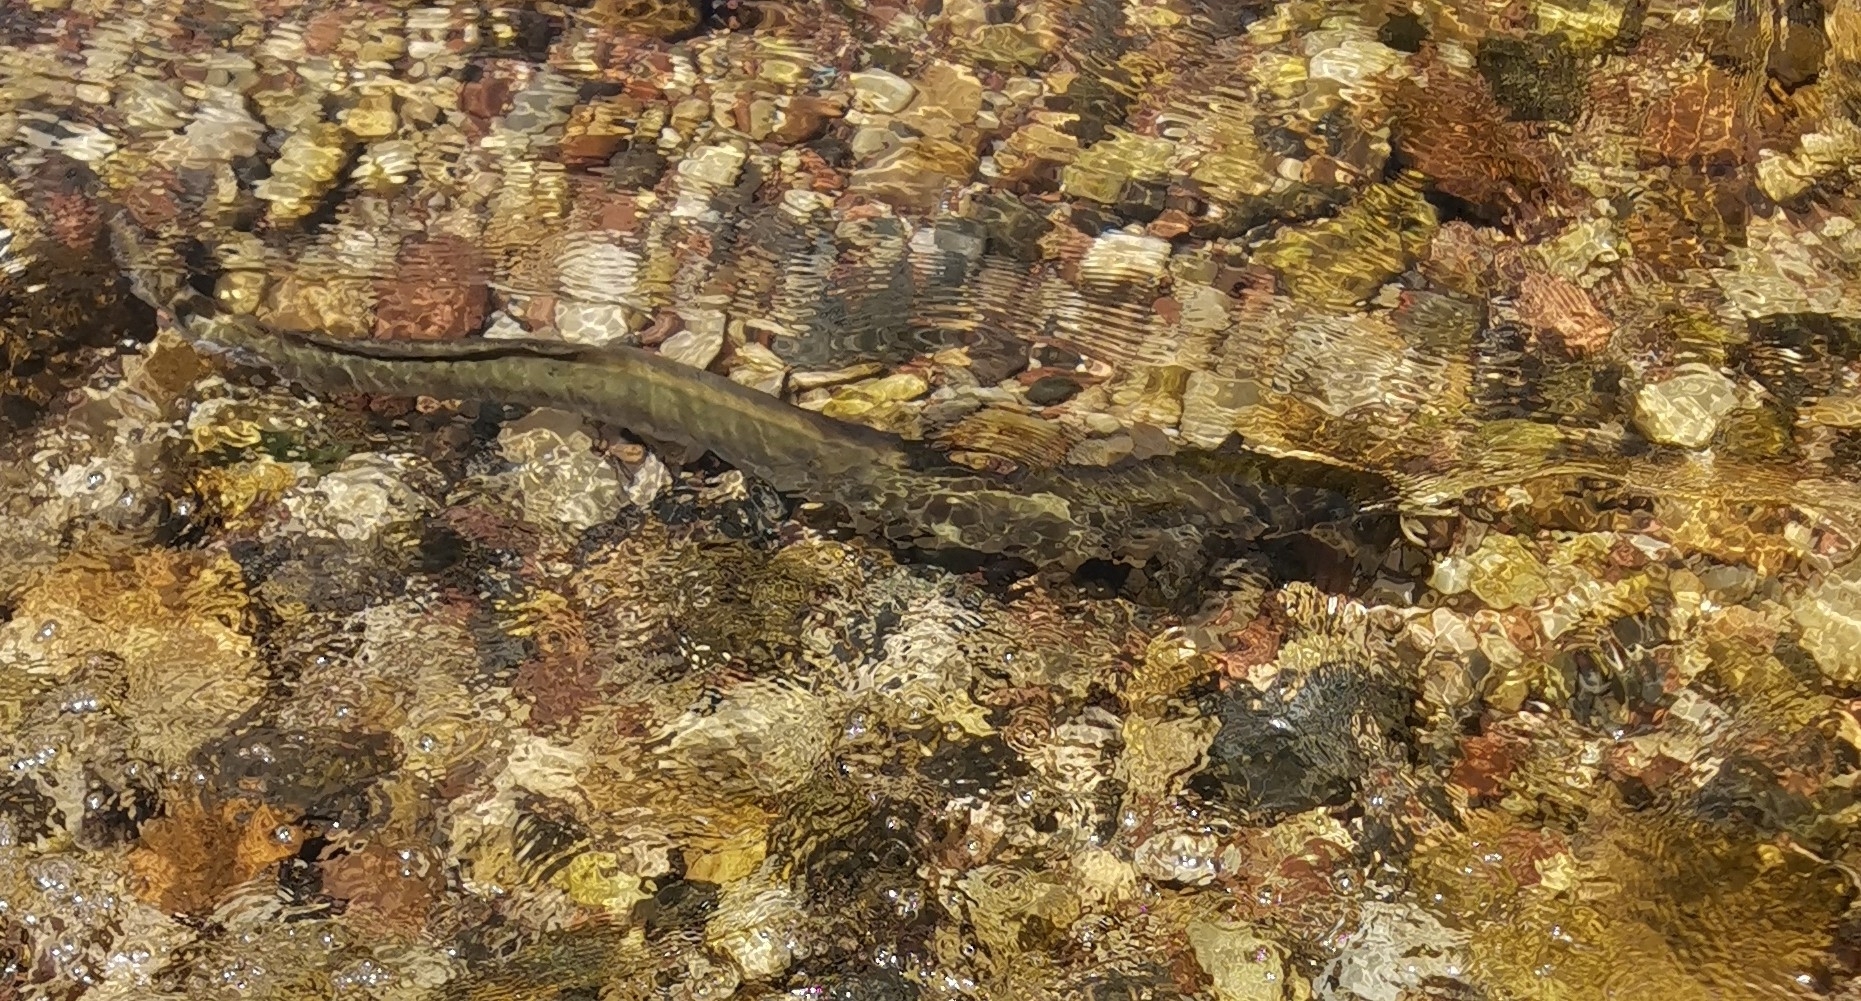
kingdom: Animalia
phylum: Chordata
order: Anguilliformes
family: Anguillidae
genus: Anguilla
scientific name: Anguilla anguilla
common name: European eel
